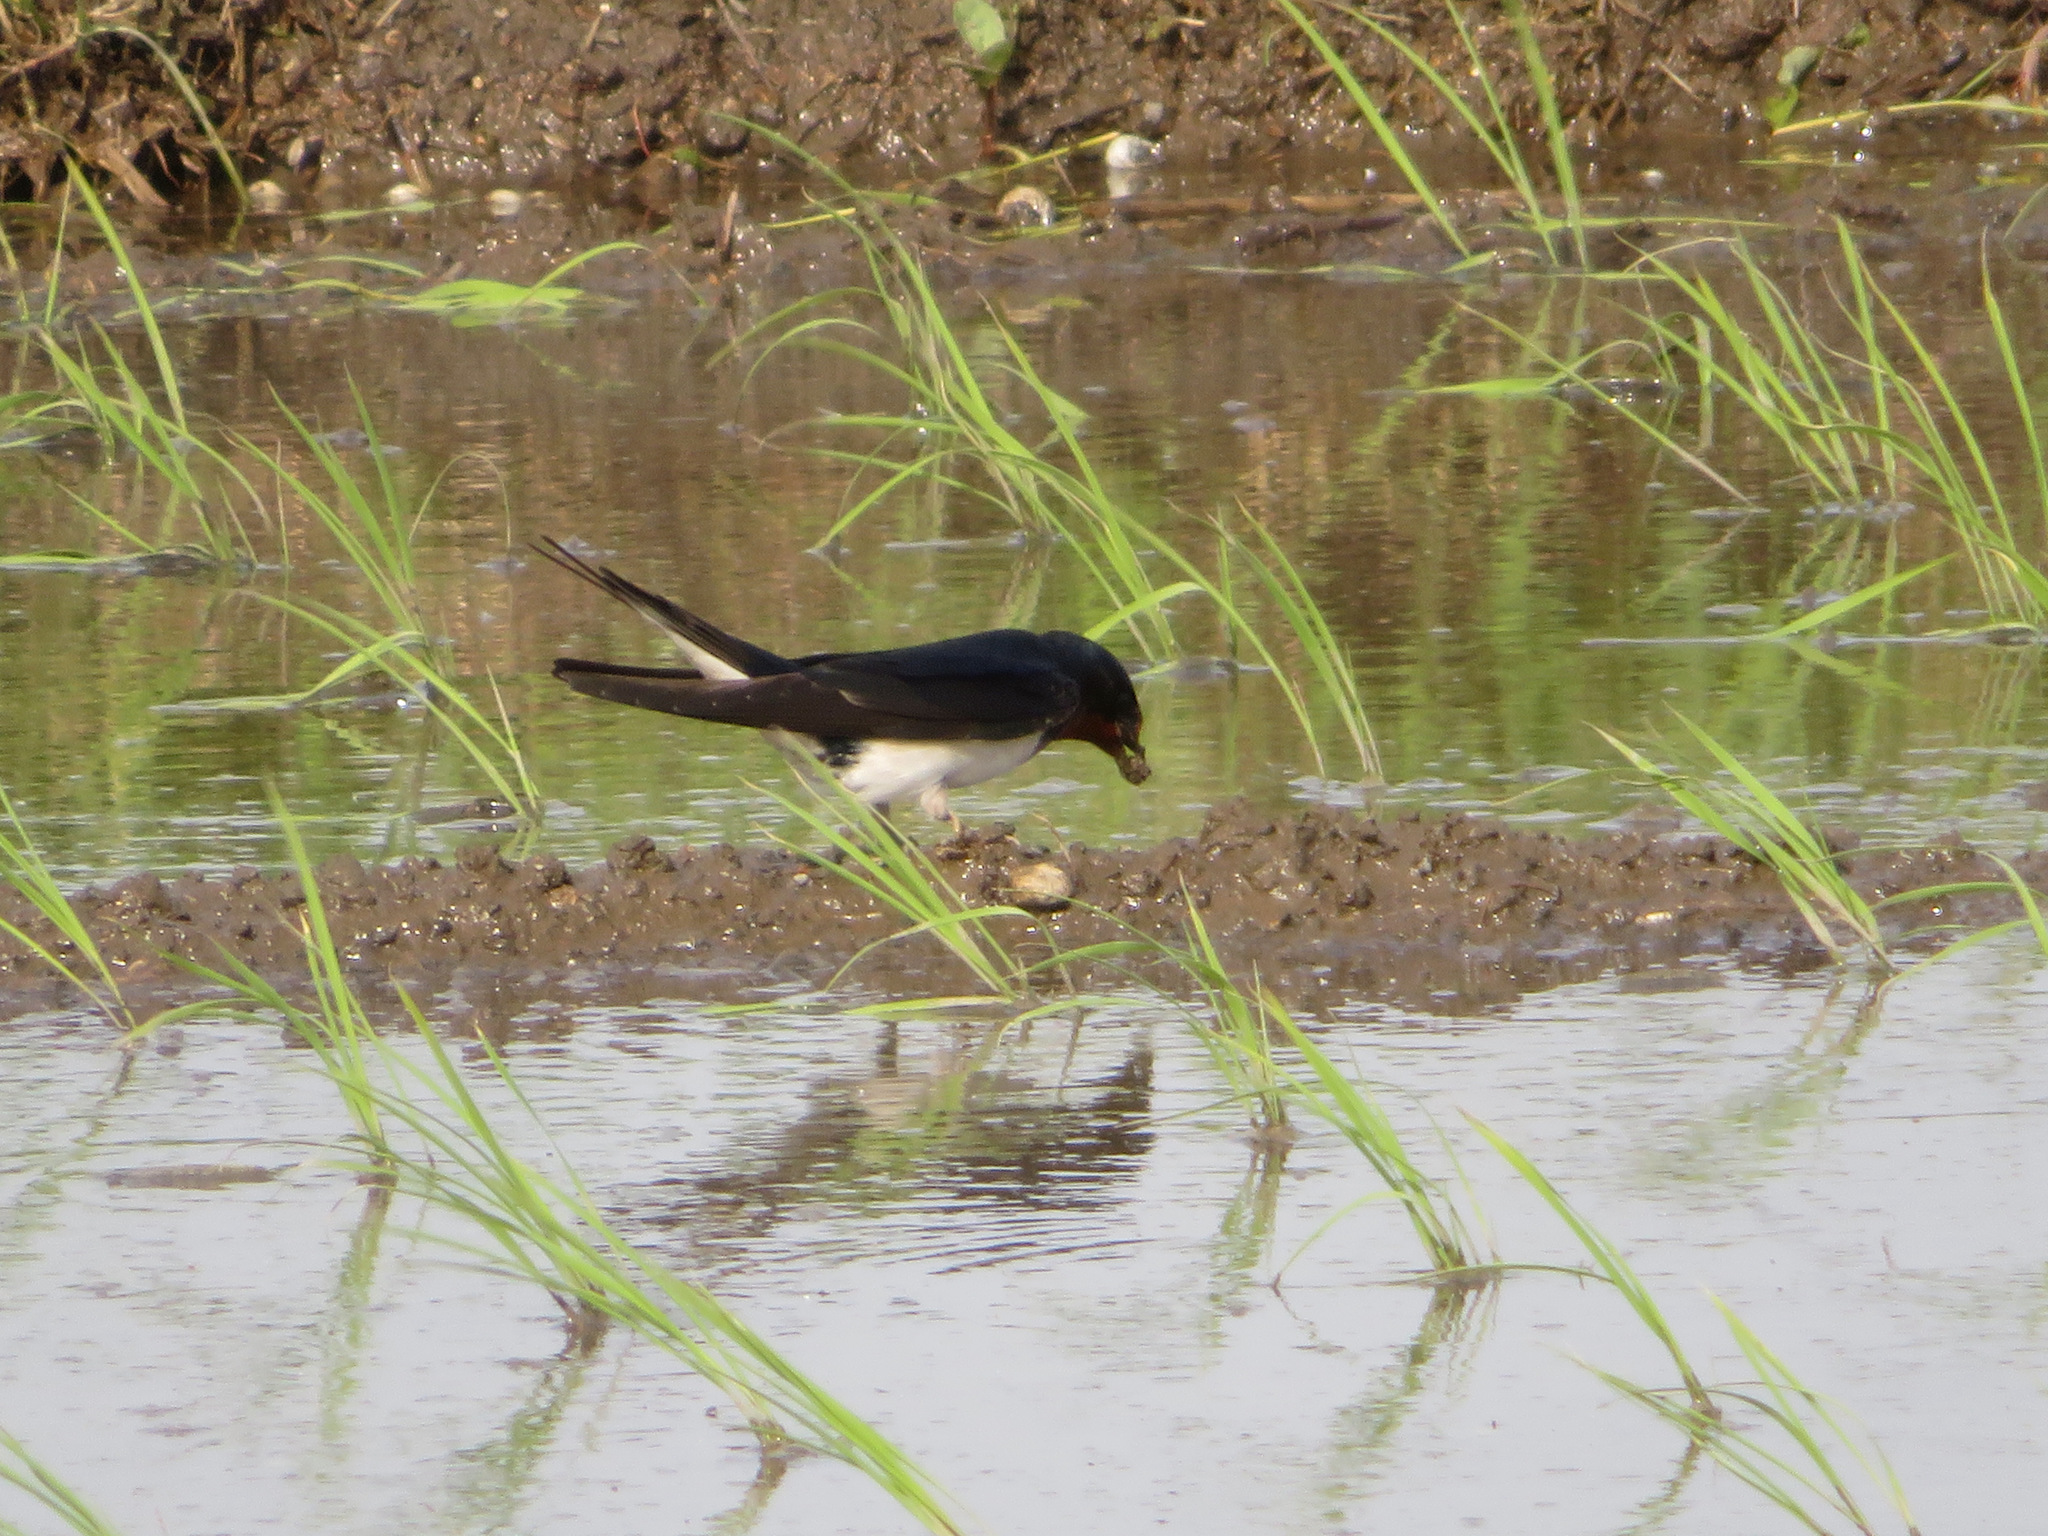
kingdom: Animalia
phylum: Chordata
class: Aves
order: Passeriformes
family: Hirundinidae
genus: Hirundo
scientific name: Hirundo rustica
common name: Barn swallow
